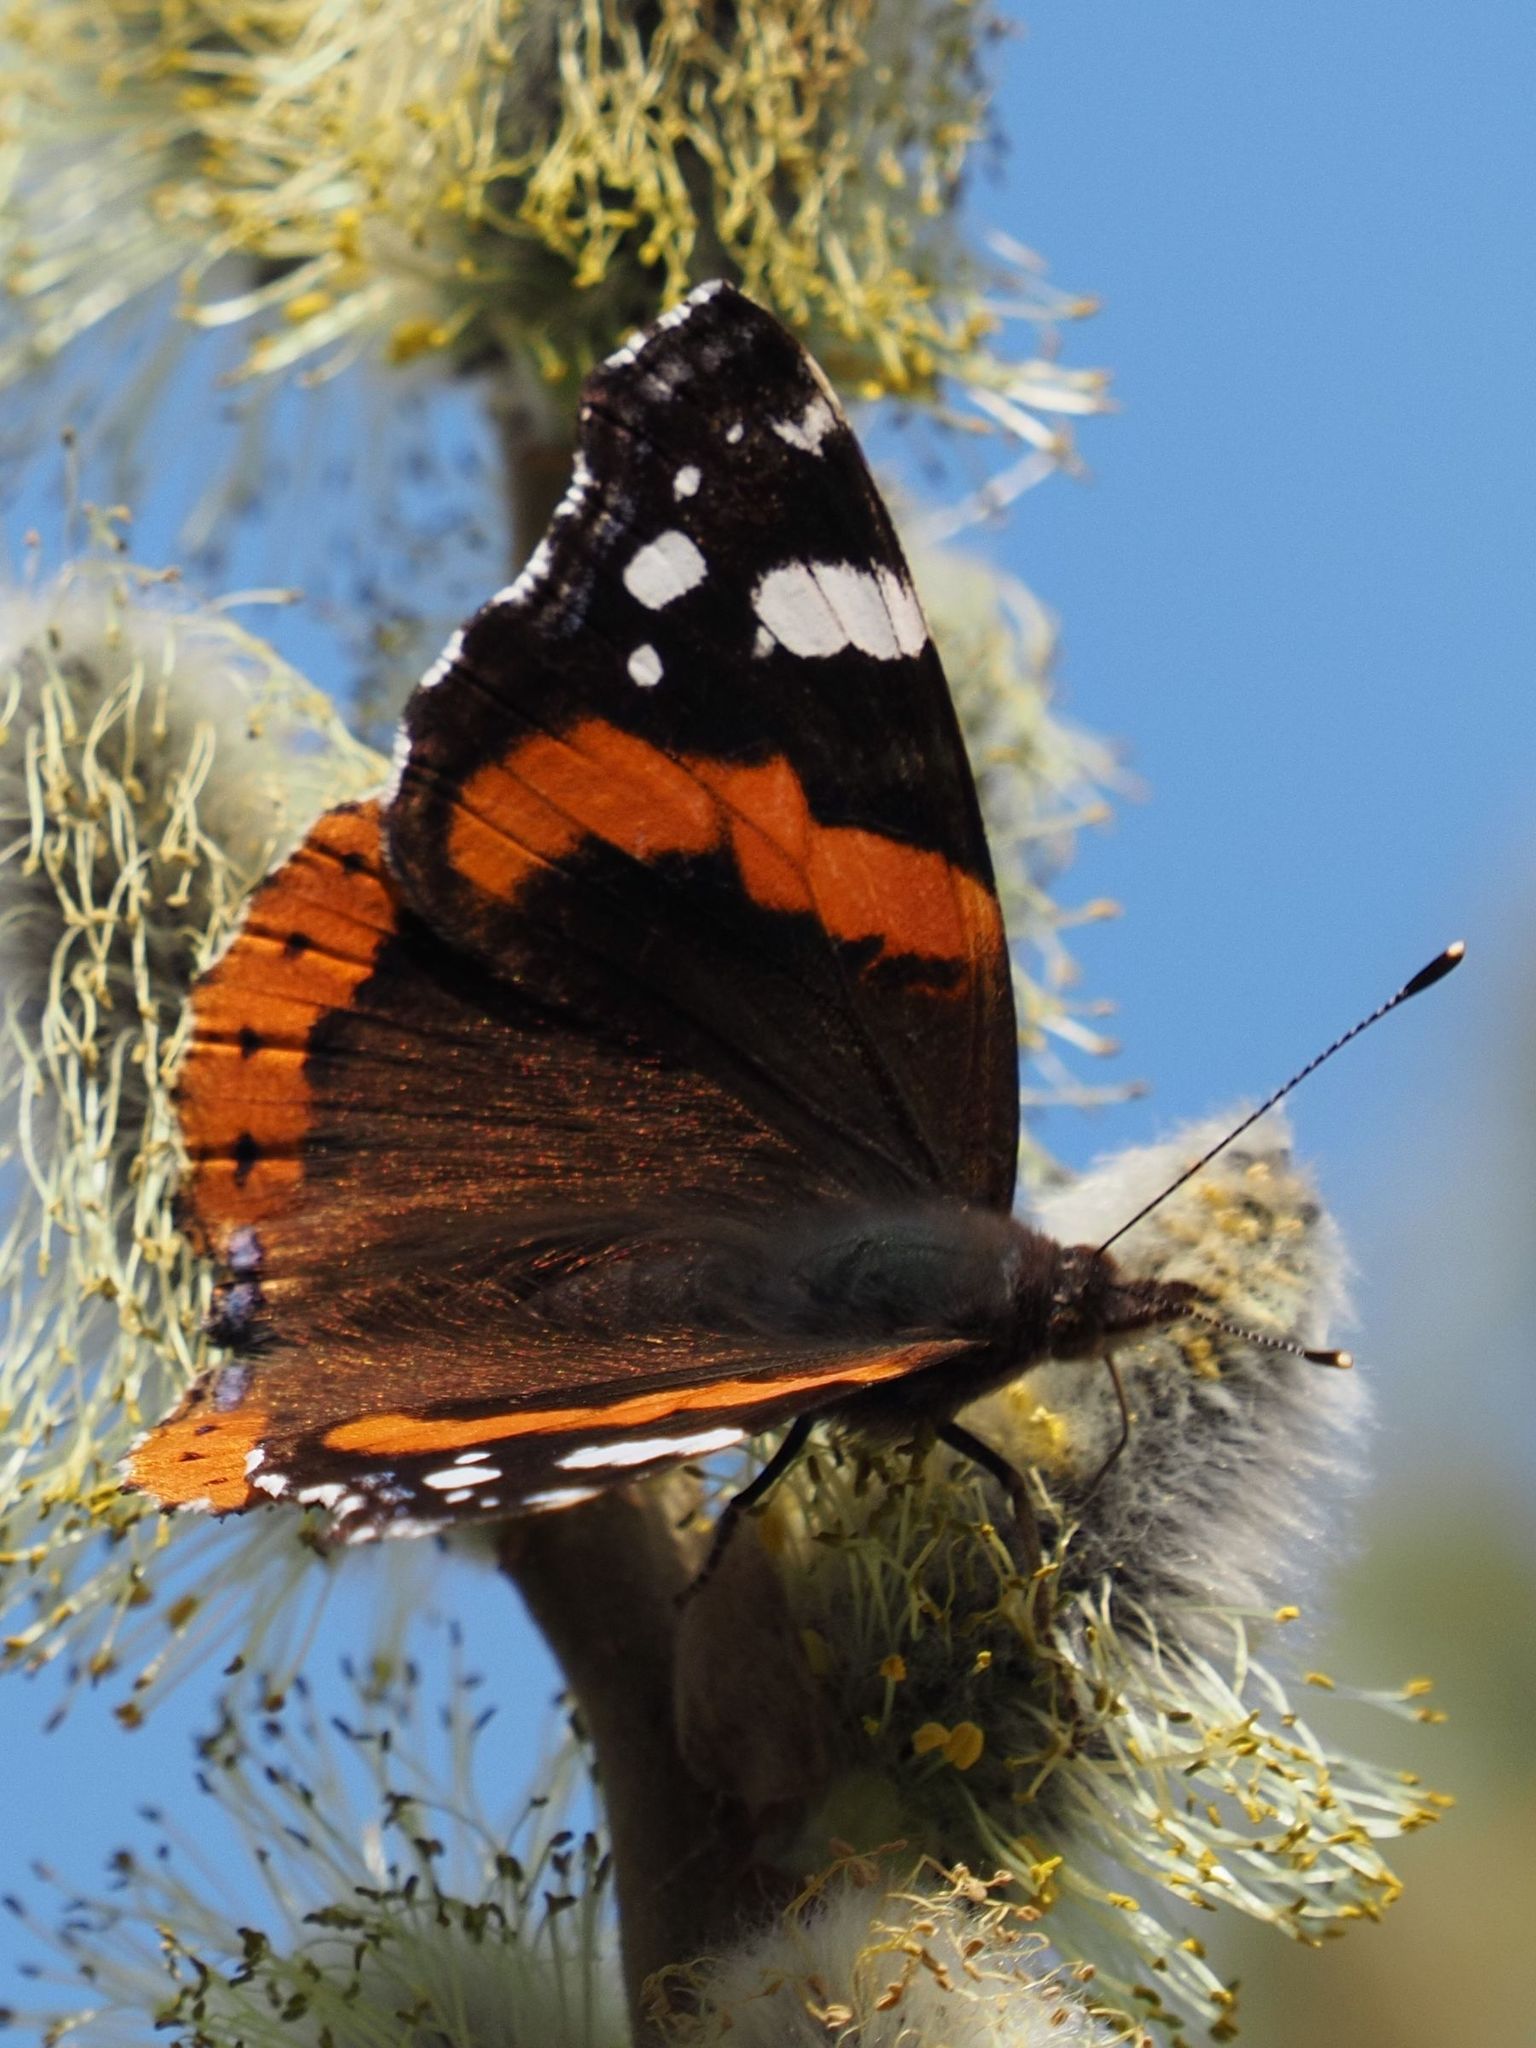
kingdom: Animalia
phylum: Arthropoda
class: Insecta
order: Lepidoptera
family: Nymphalidae
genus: Vanessa
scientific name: Vanessa atalanta
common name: Red admiral
